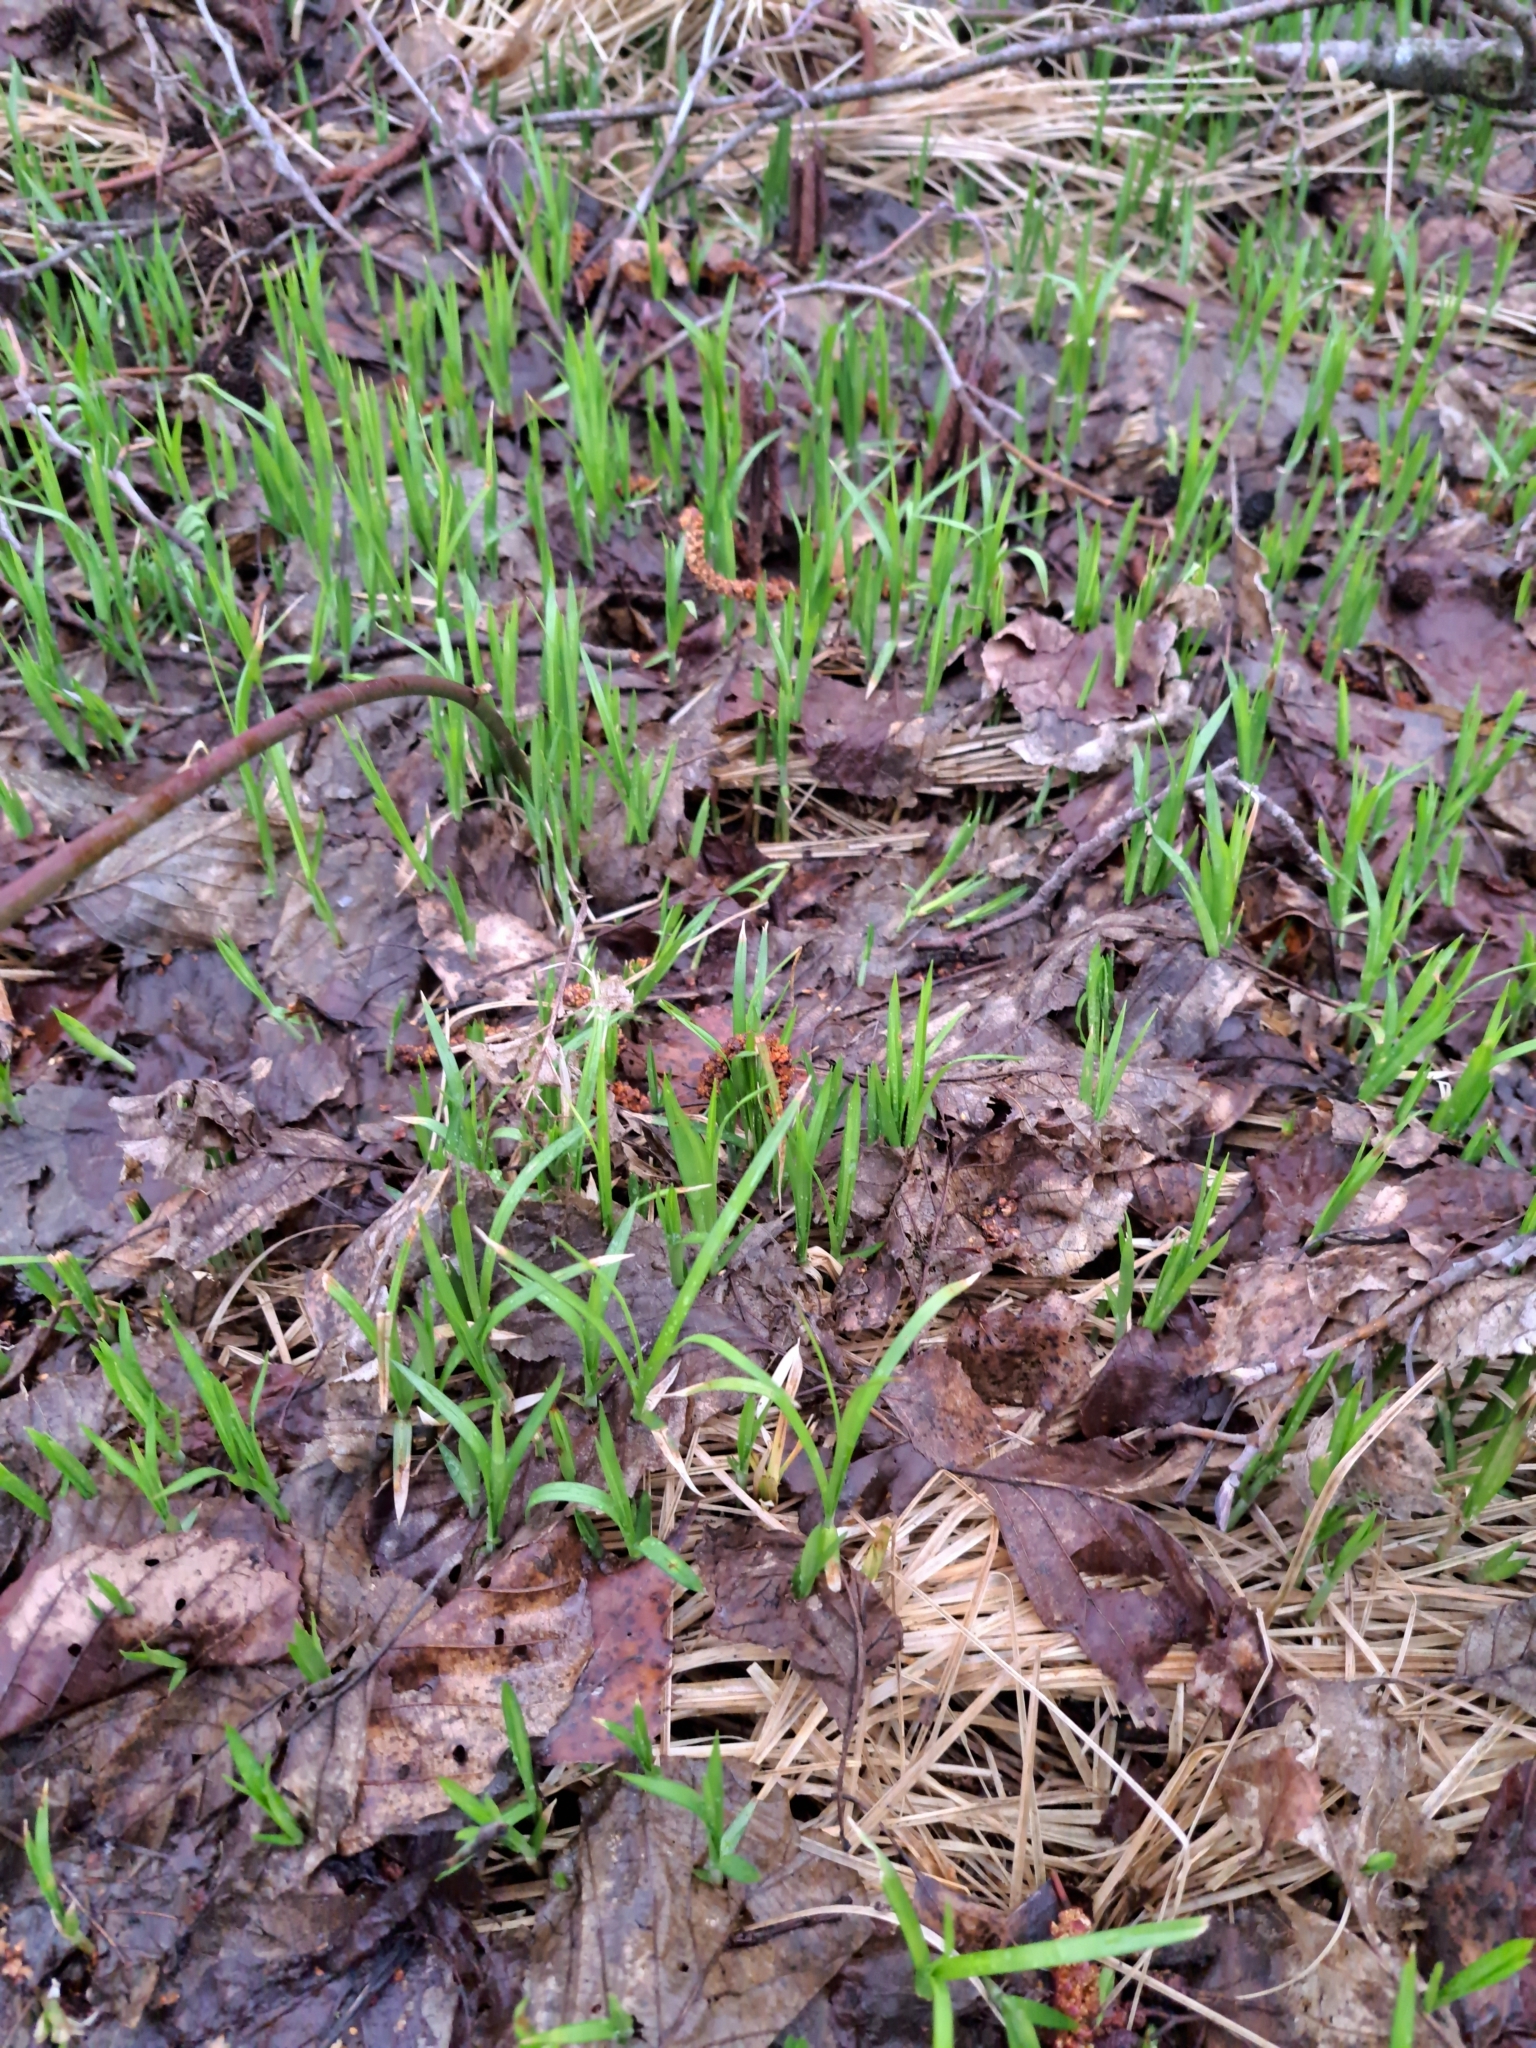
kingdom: Plantae
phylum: Tracheophyta
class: Magnoliopsida
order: Caryophyllales
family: Caryophyllaceae
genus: Rabelera
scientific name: Rabelera holostea
